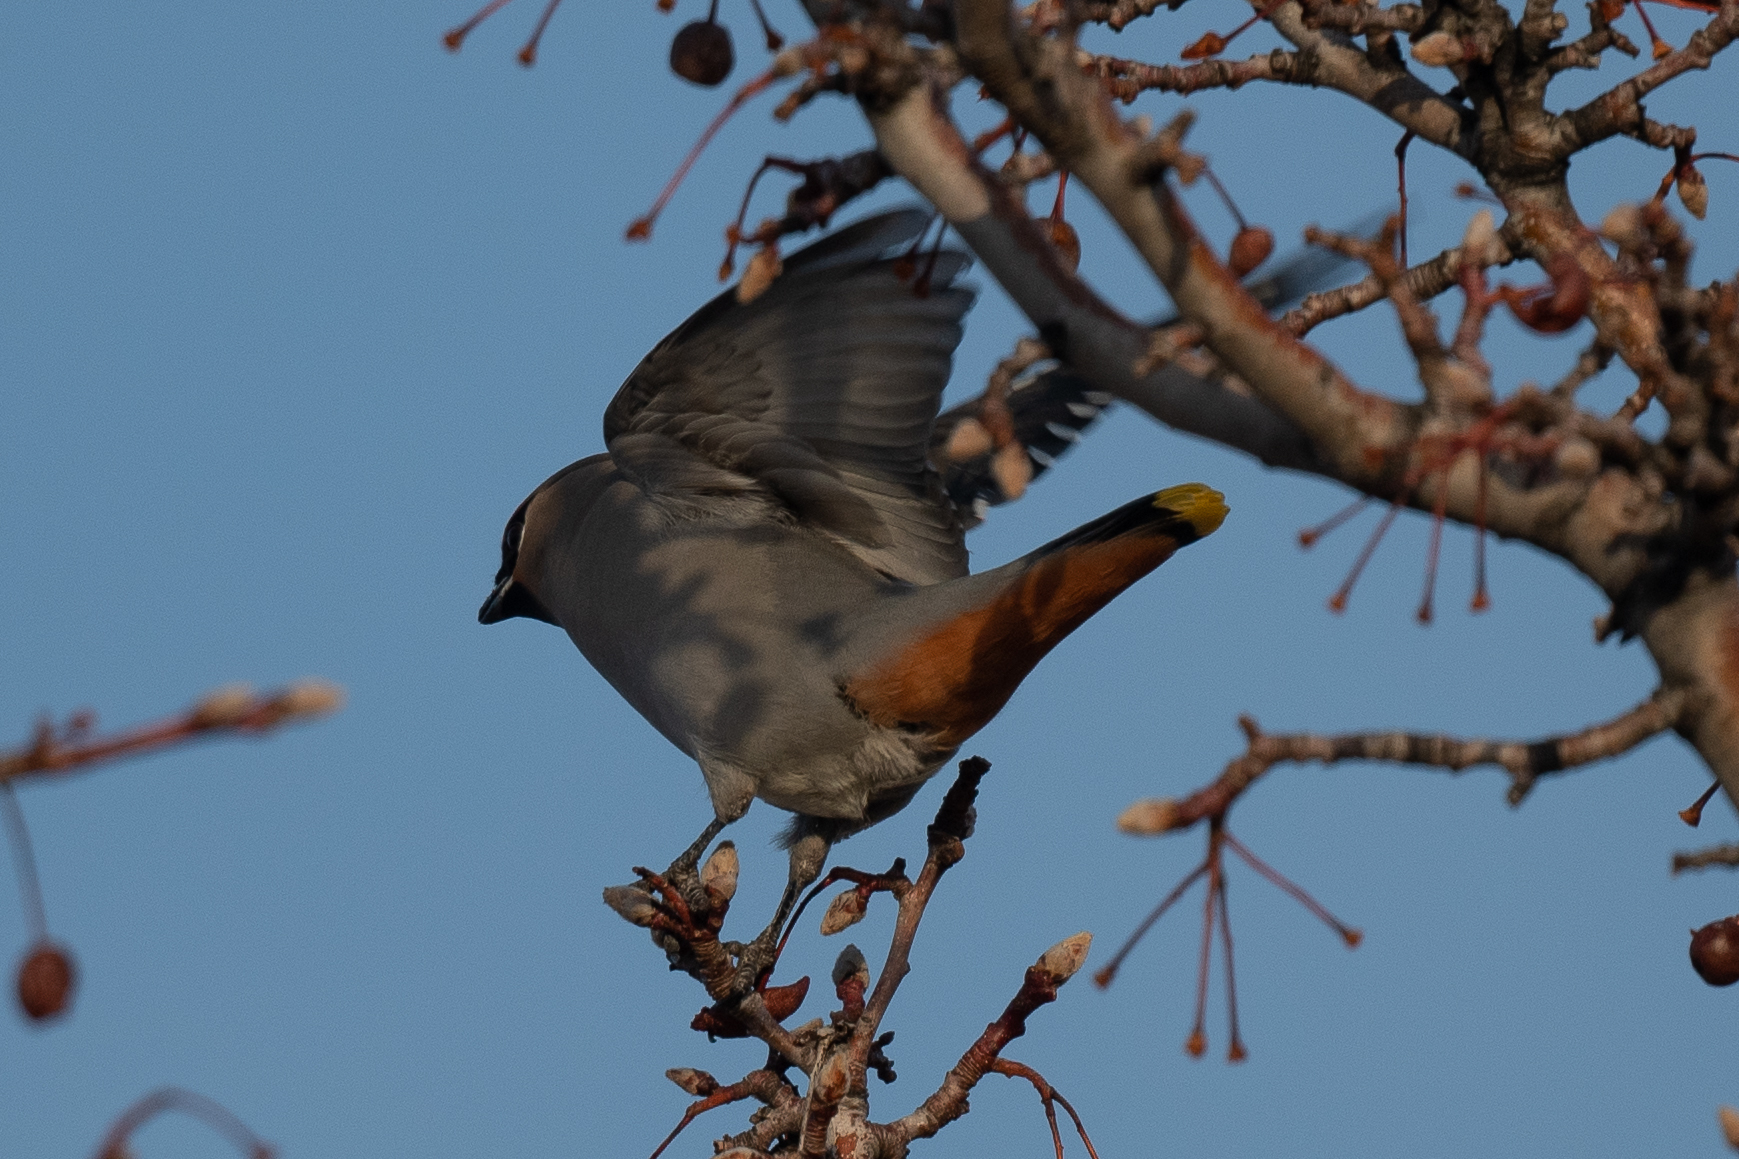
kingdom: Animalia
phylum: Chordata
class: Aves
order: Passeriformes
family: Bombycillidae
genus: Bombycilla
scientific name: Bombycilla garrulus
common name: Bohemian waxwing
